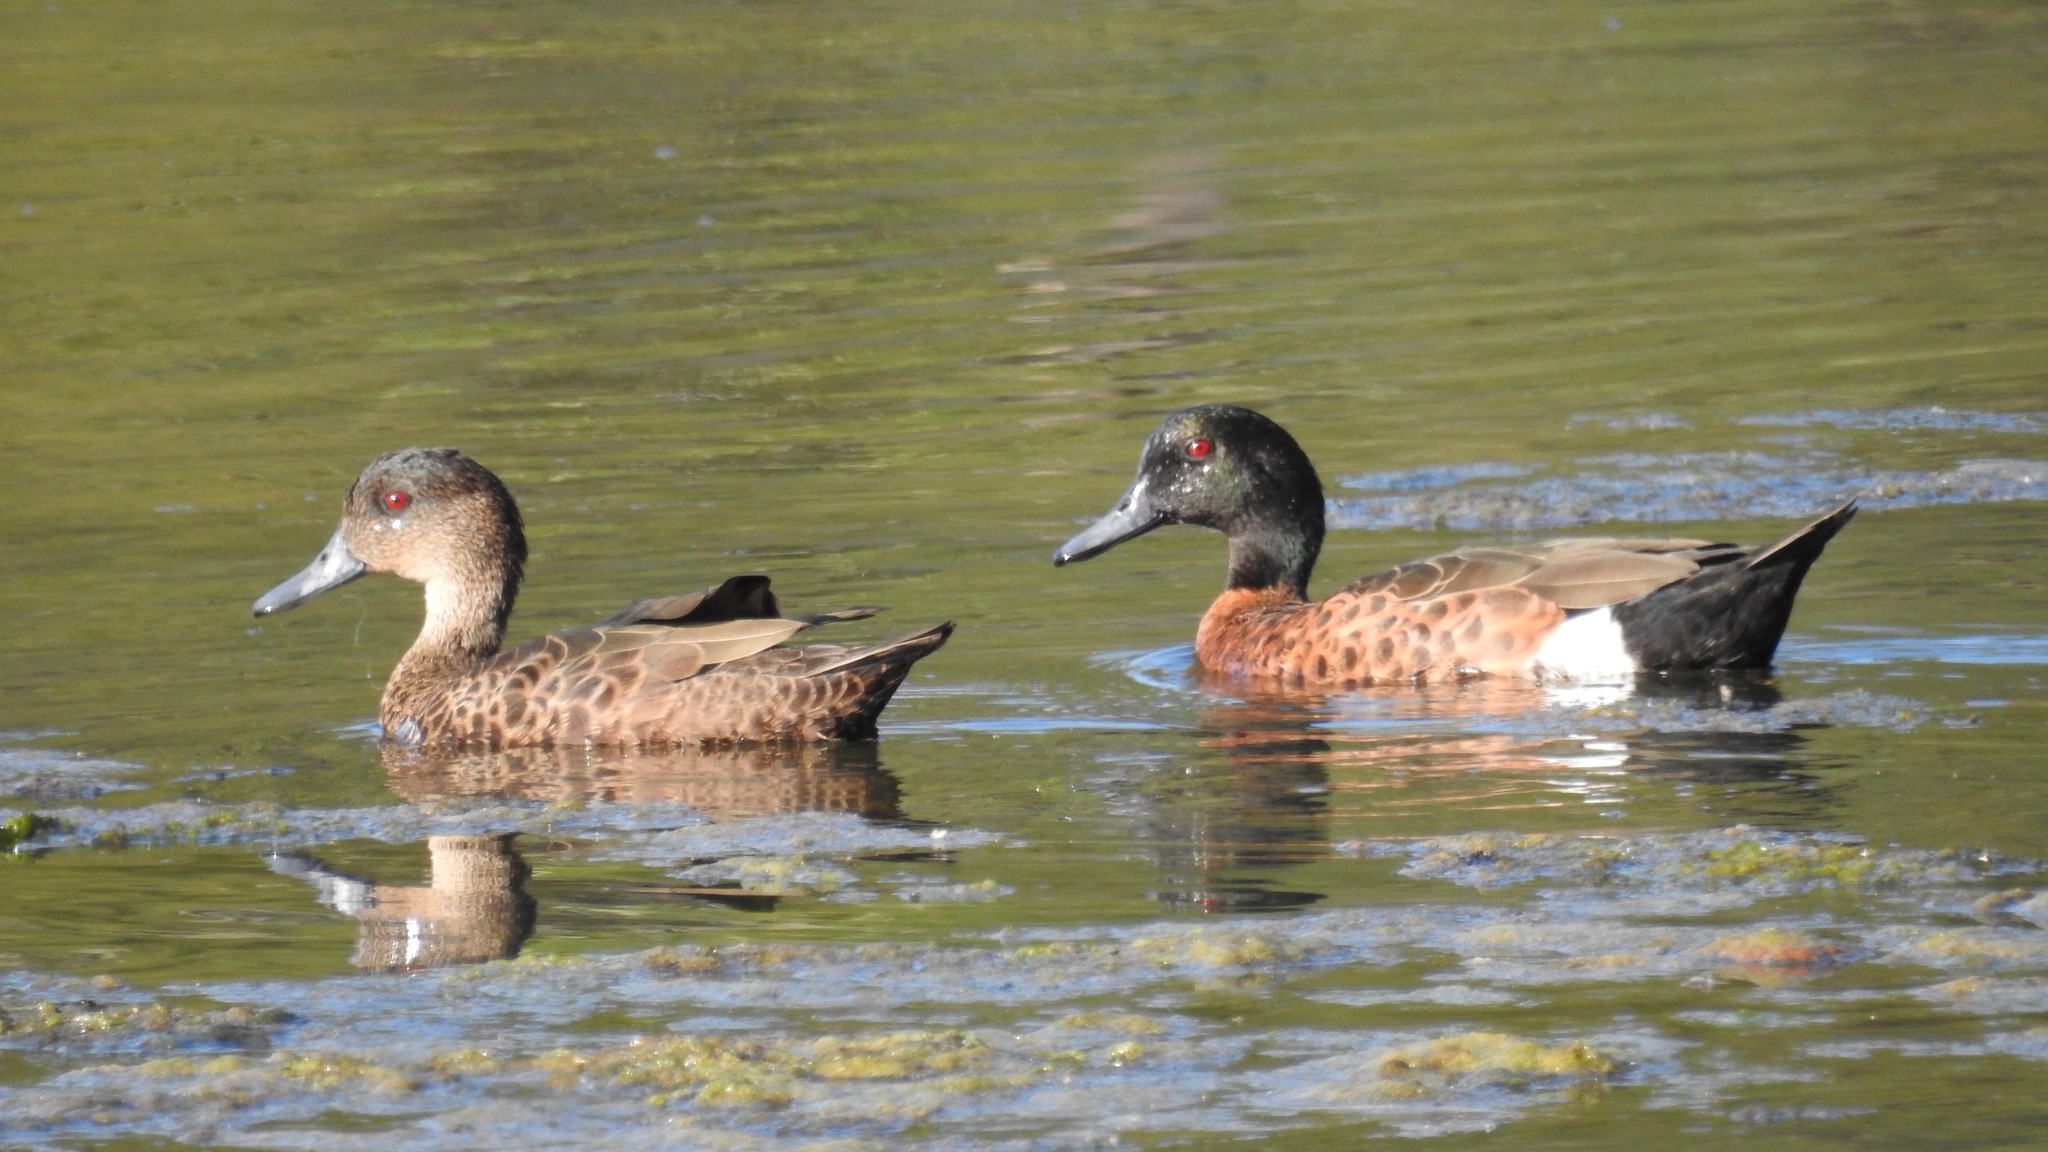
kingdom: Animalia
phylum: Chordata
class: Aves
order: Anseriformes
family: Anatidae
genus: Anas
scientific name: Anas castanea
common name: Chestnut teal
